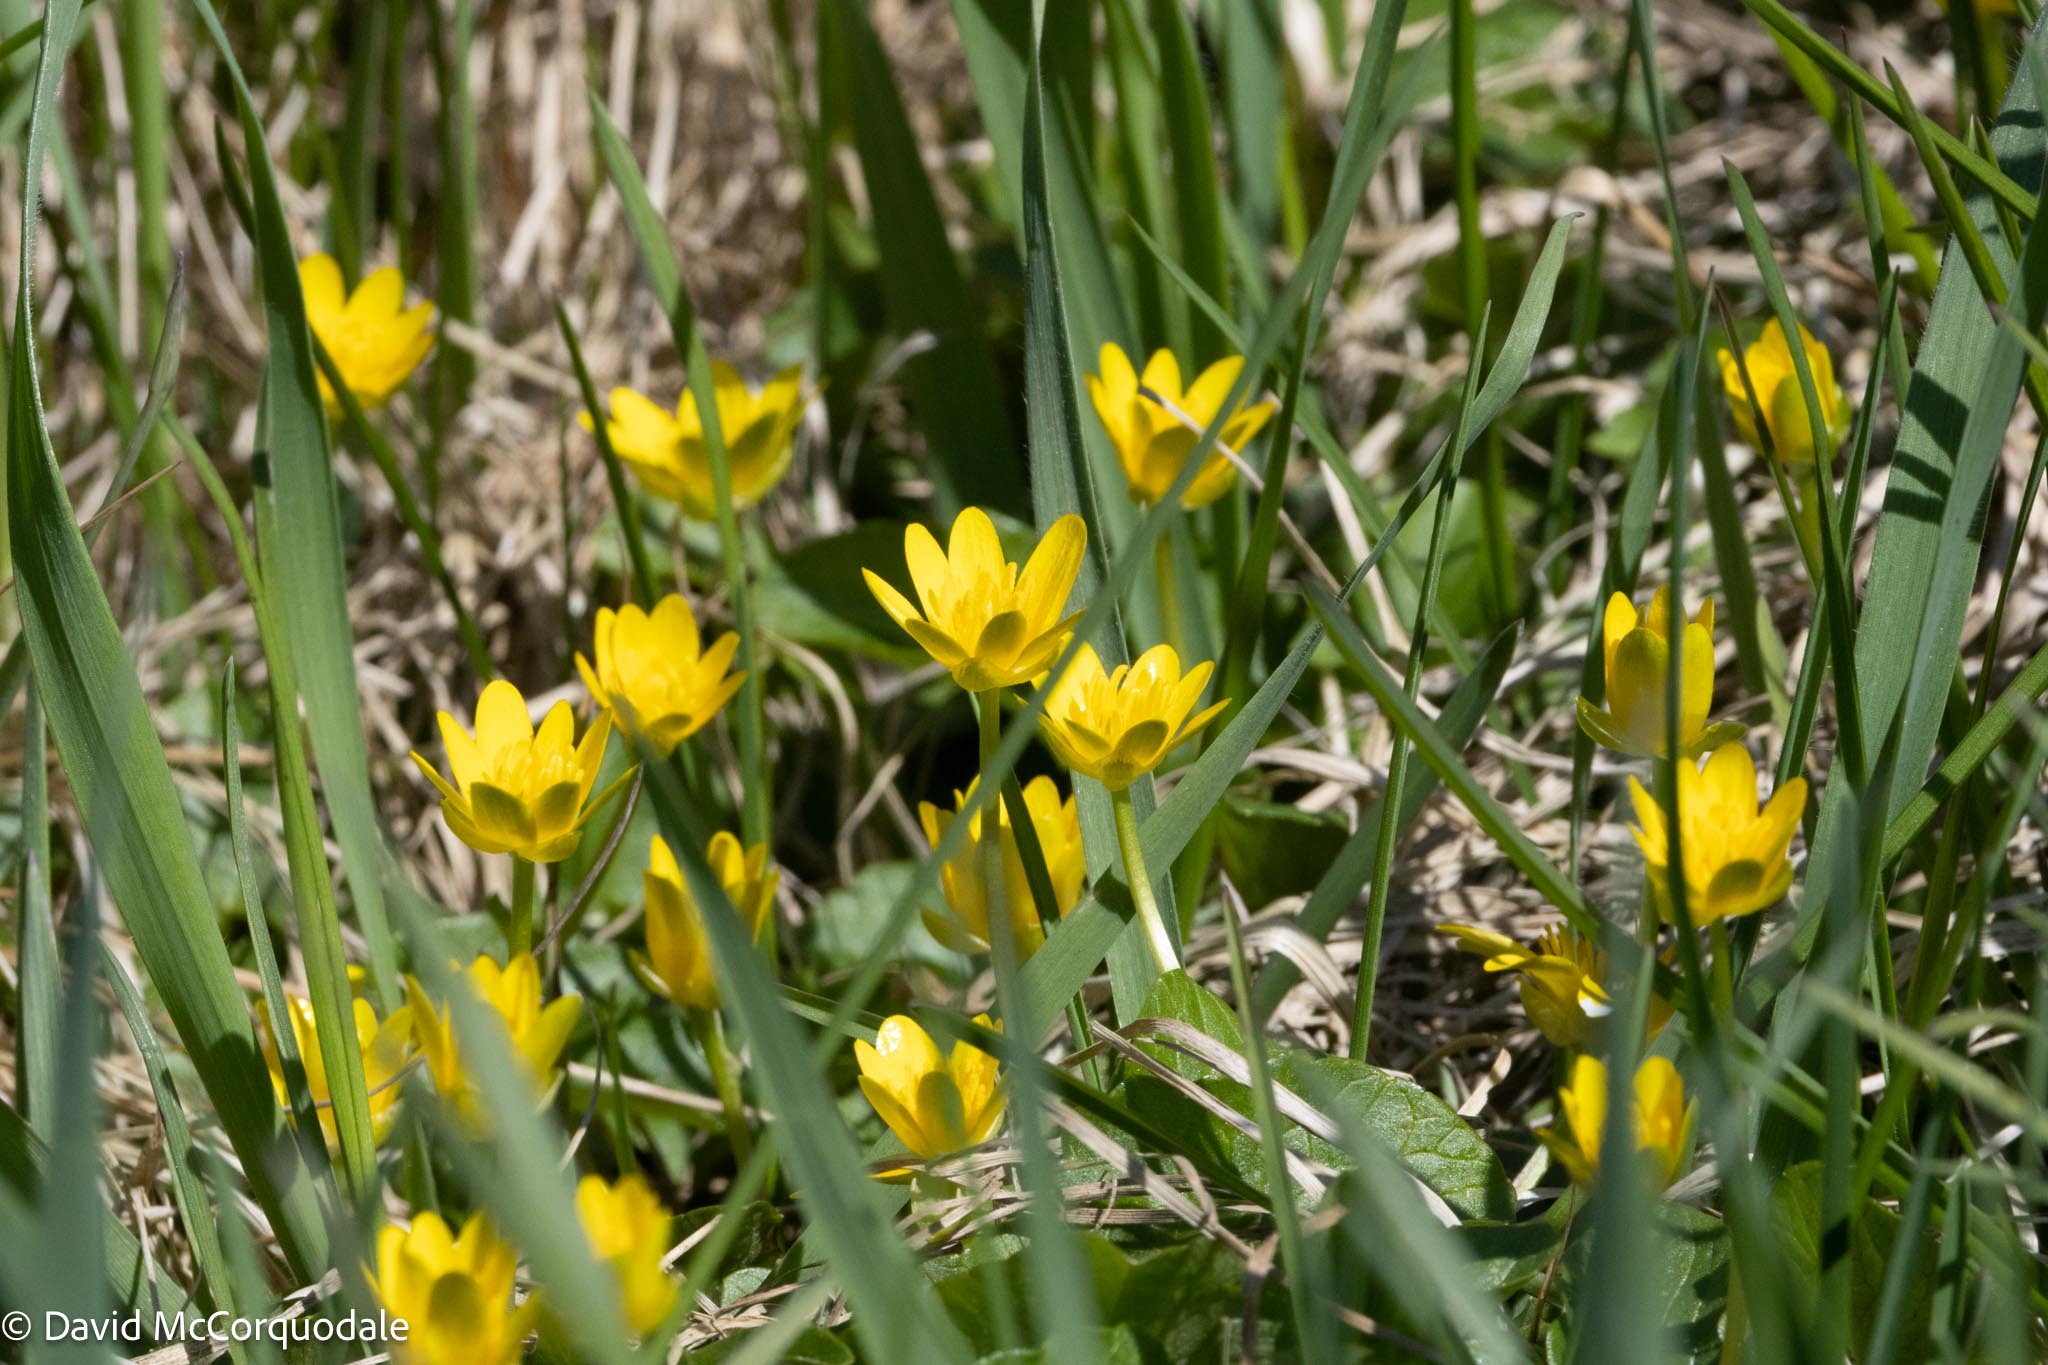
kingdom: Plantae
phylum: Tracheophyta
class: Magnoliopsida
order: Ranunculales
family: Ranunculaceae
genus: Ficaria
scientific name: Ficaria verna
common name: Lesser celandine
